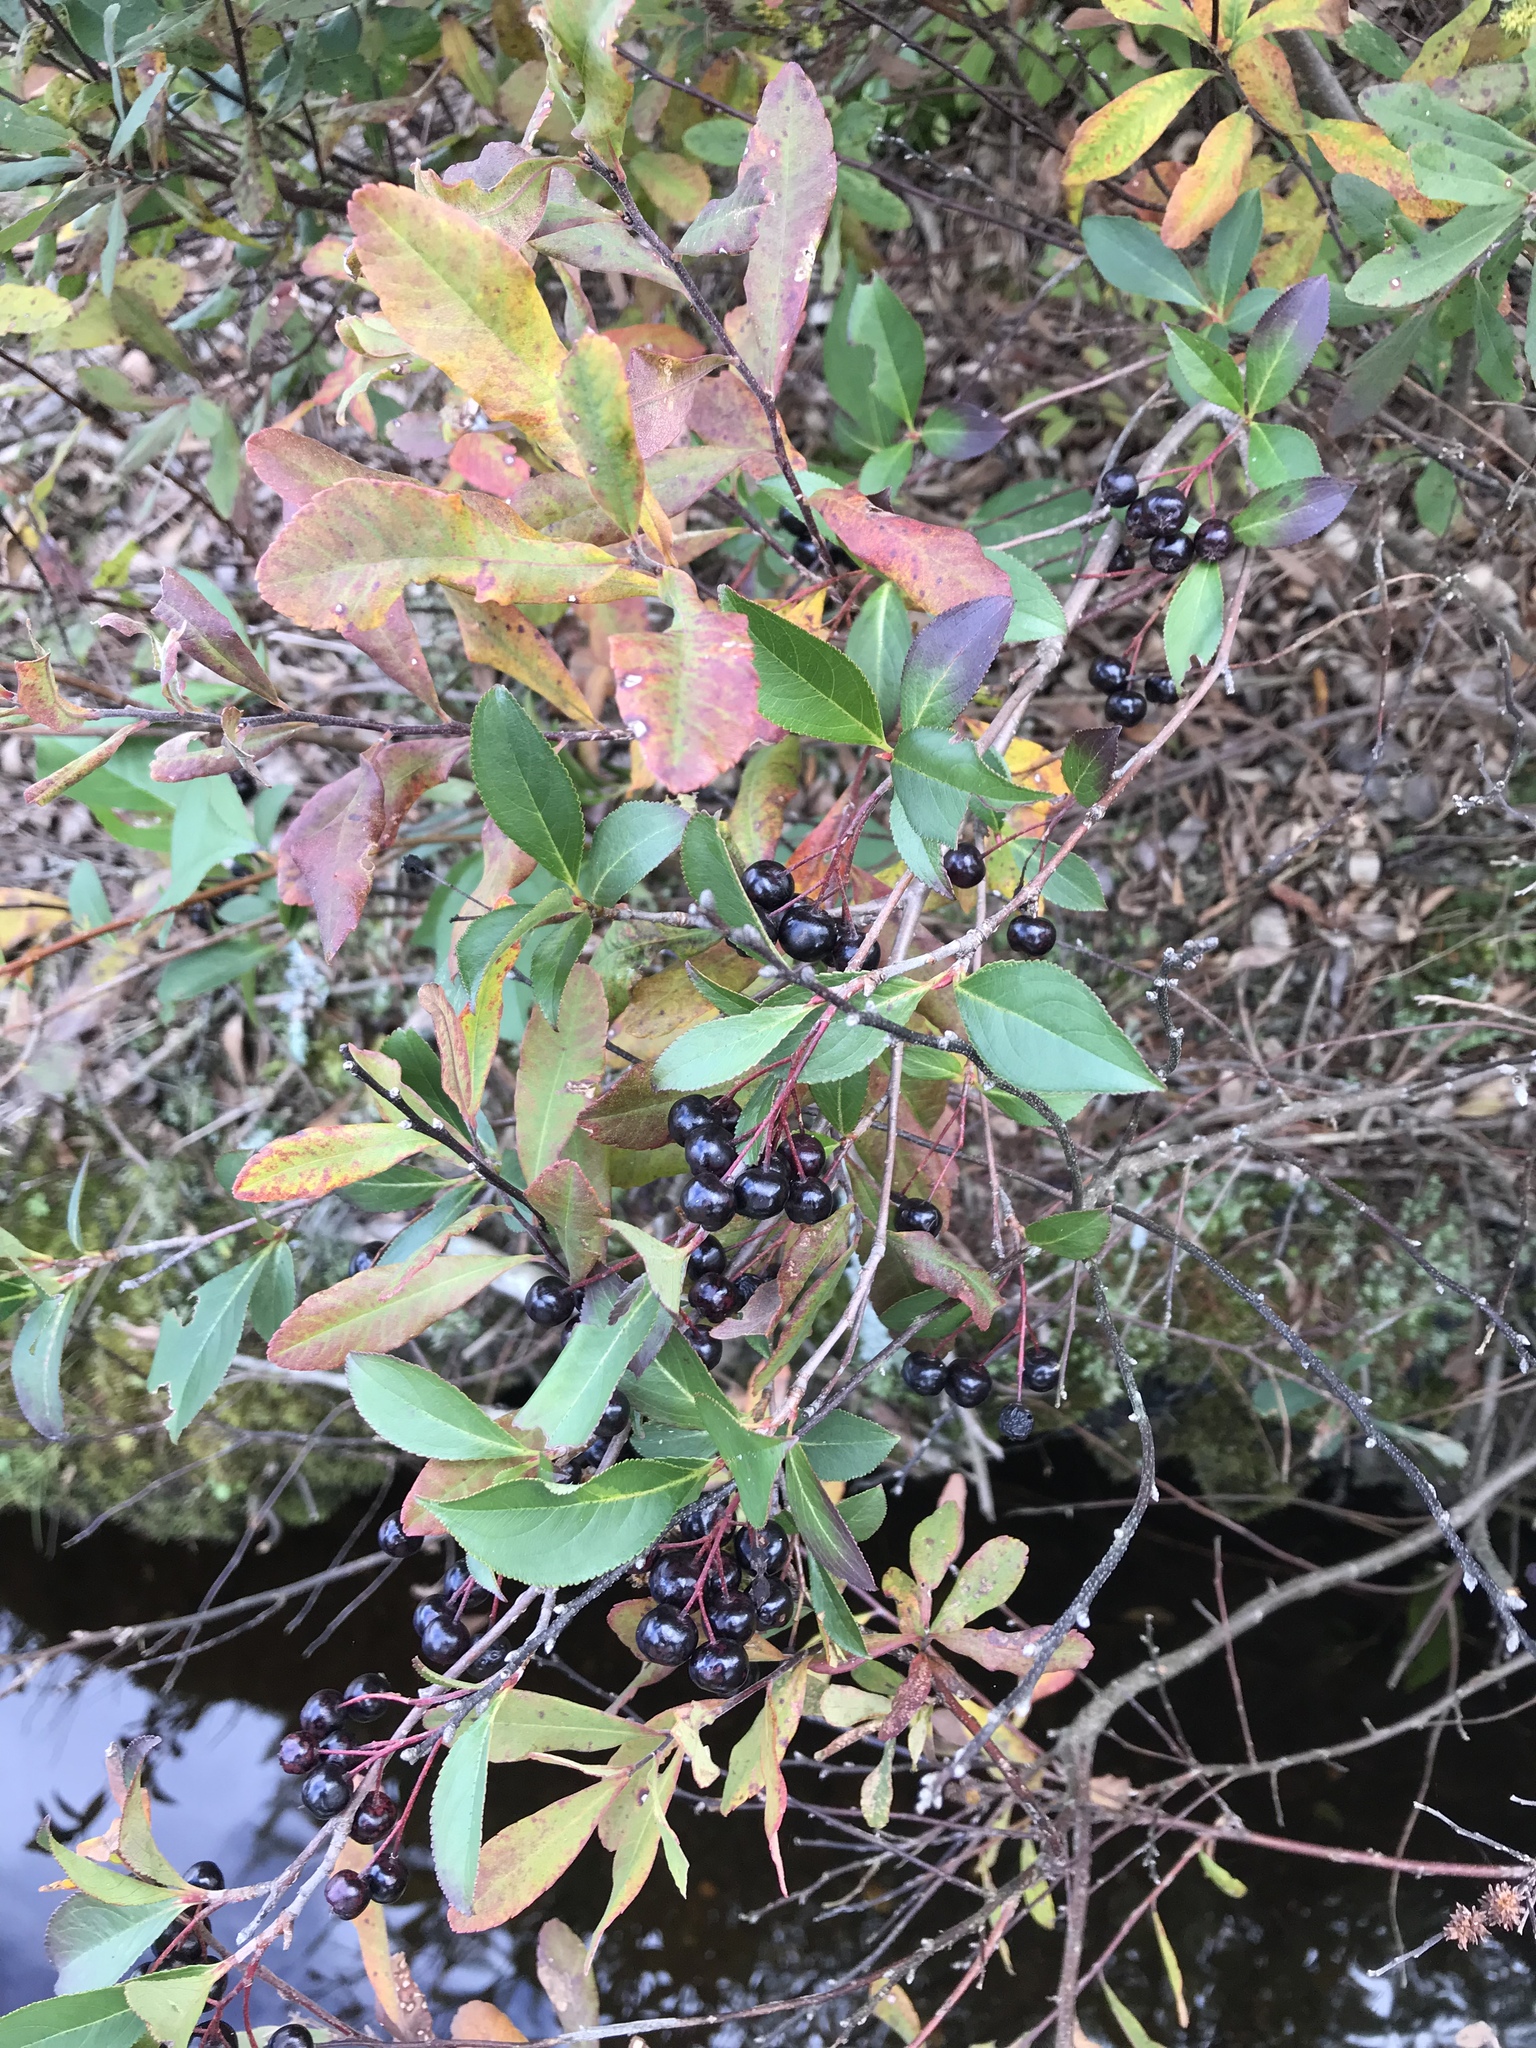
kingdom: Plantae
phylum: Tracheophyta
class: Magnoliopsida
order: Rosales
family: Rosaceae
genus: Aronia
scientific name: Aronia melanocarpa
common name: Black chokeberry
